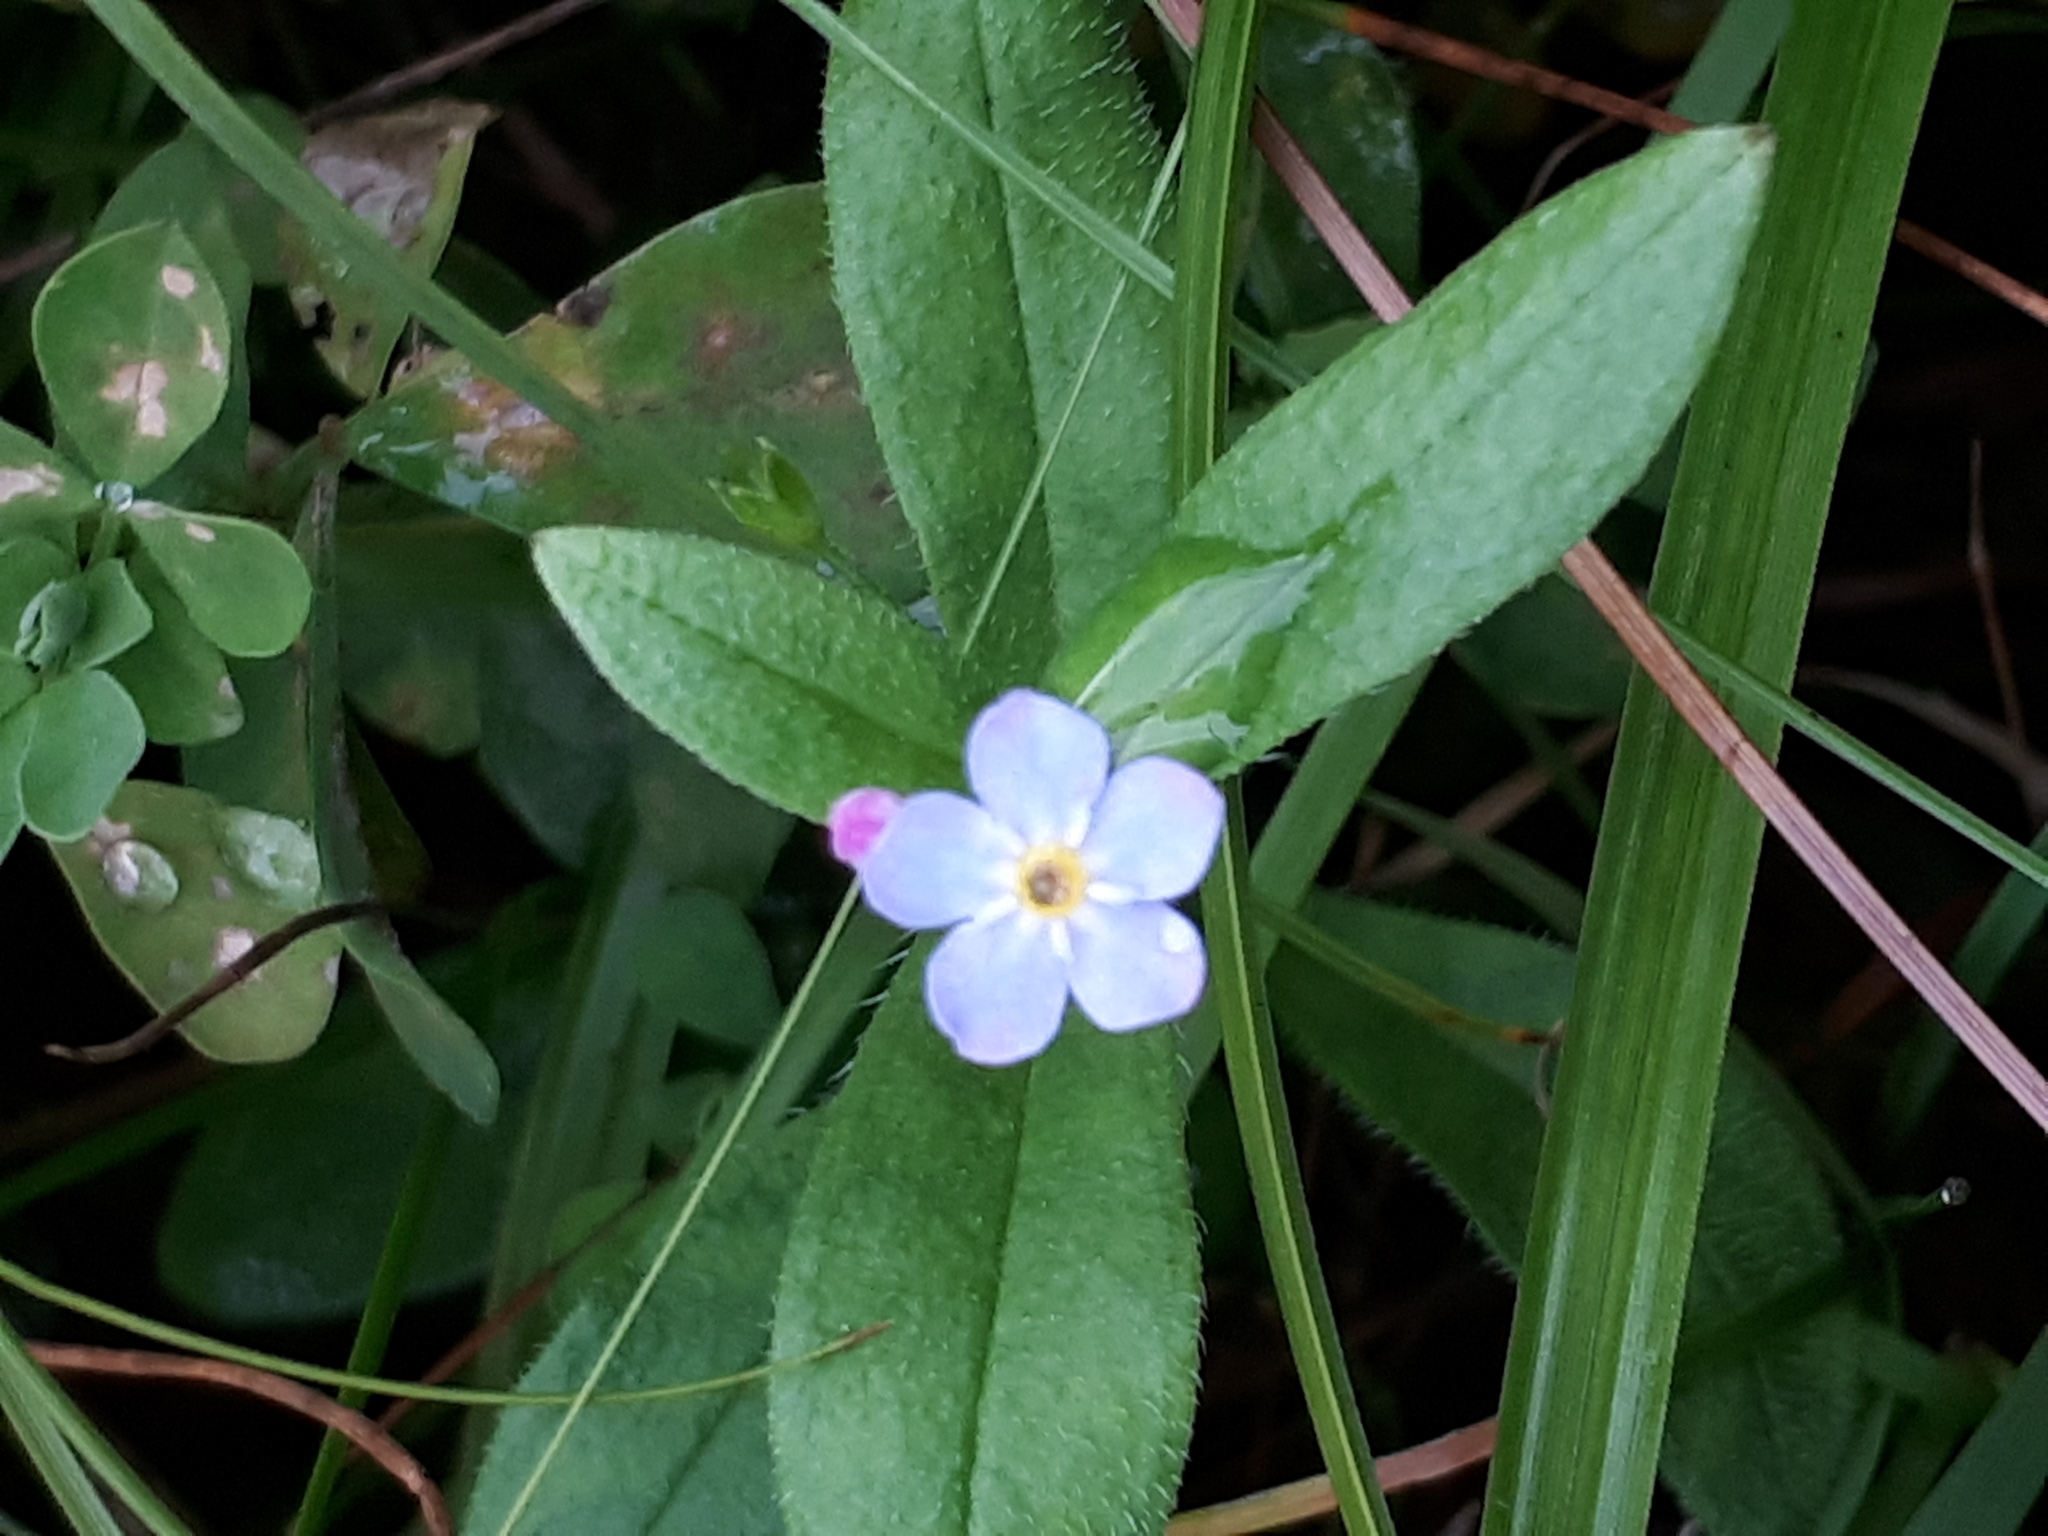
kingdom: Plantae
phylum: Tracheophyta
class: Magnoliopsida
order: Boraginales
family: Boraginaceae
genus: Myosotis
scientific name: Myosotis scorpioides
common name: Water forget-me-not
